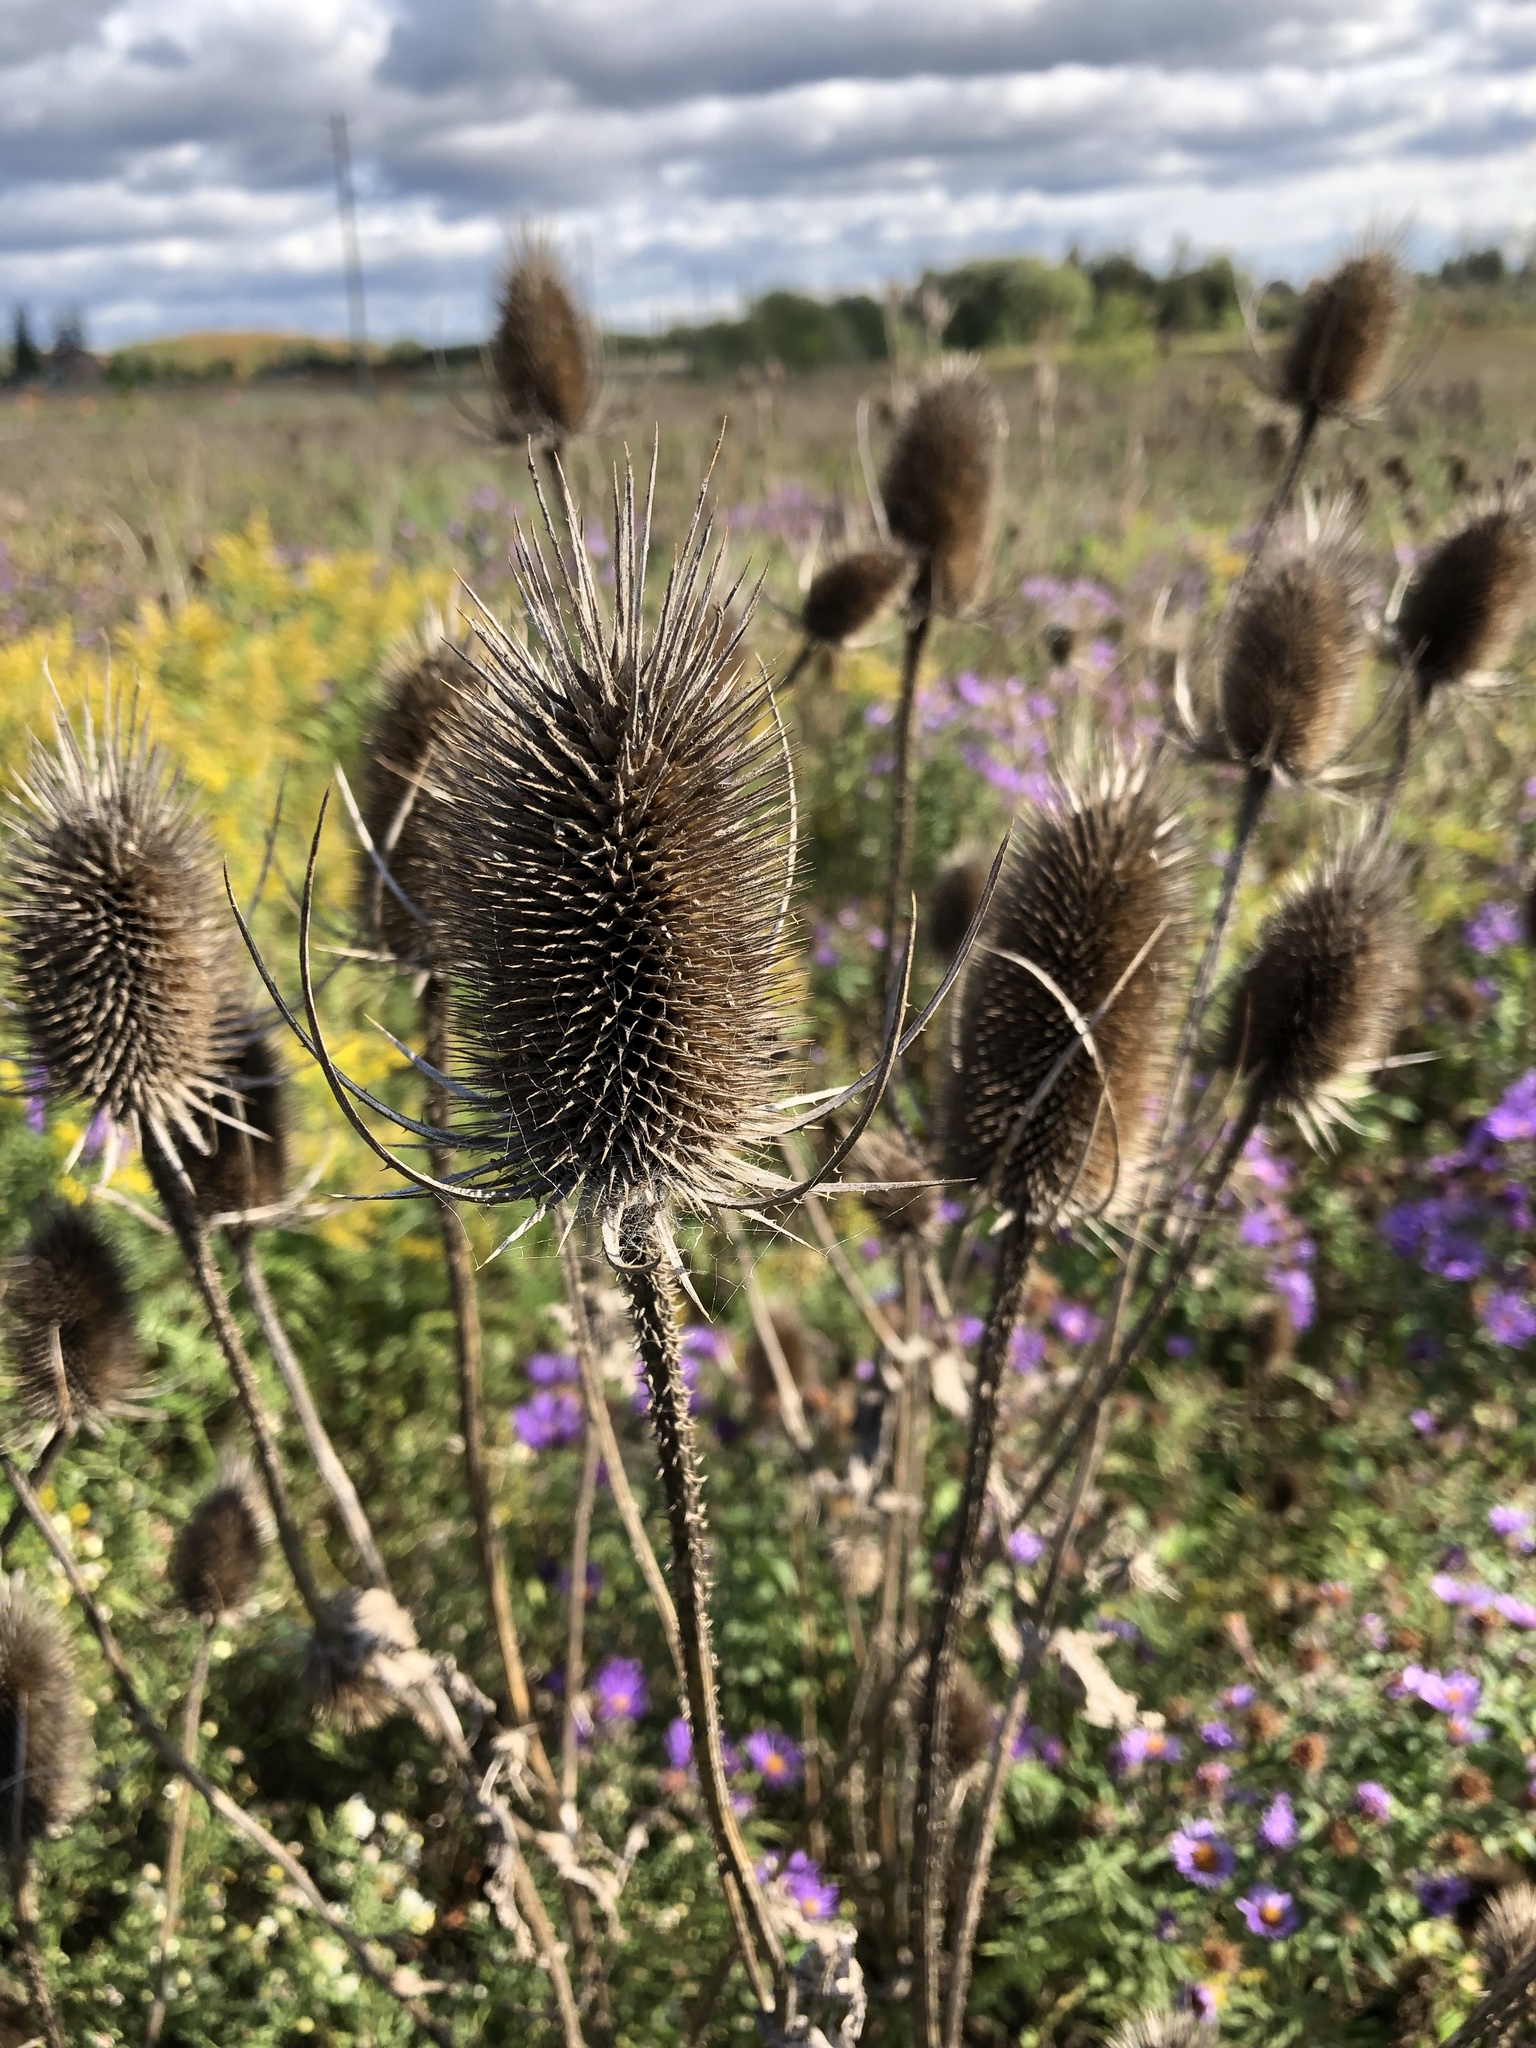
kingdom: Plantae
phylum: Tracheophyta
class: Magnoliopsida
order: Dipsacales
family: Caprifoliaceae
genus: Dipsacus
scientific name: Dipsacus fullonum
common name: Teasel
